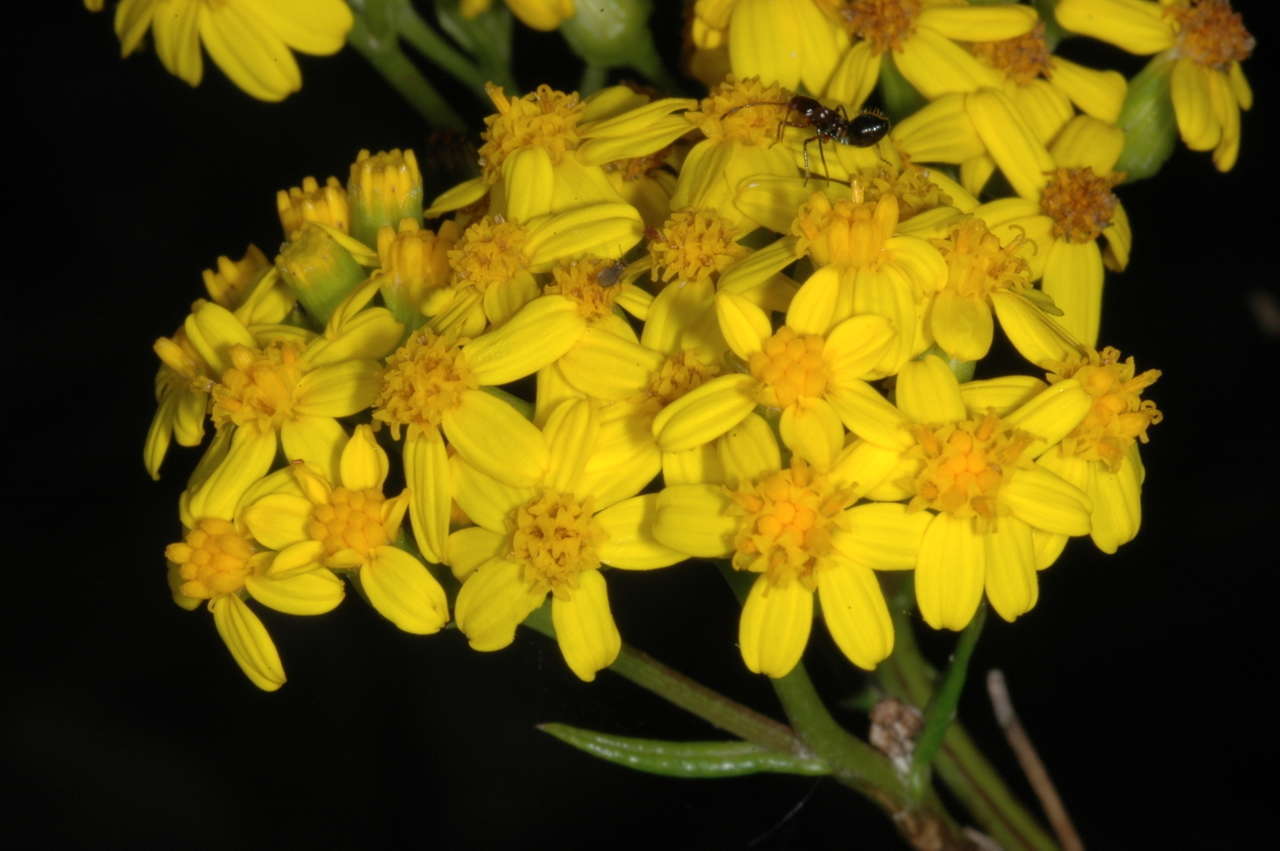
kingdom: Plantae
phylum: Tracheophyta
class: Magnoliopsida
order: Asterales
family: Asteraceae
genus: Senecio
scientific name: Senecio linearifolius
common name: Fireweed groundsel
